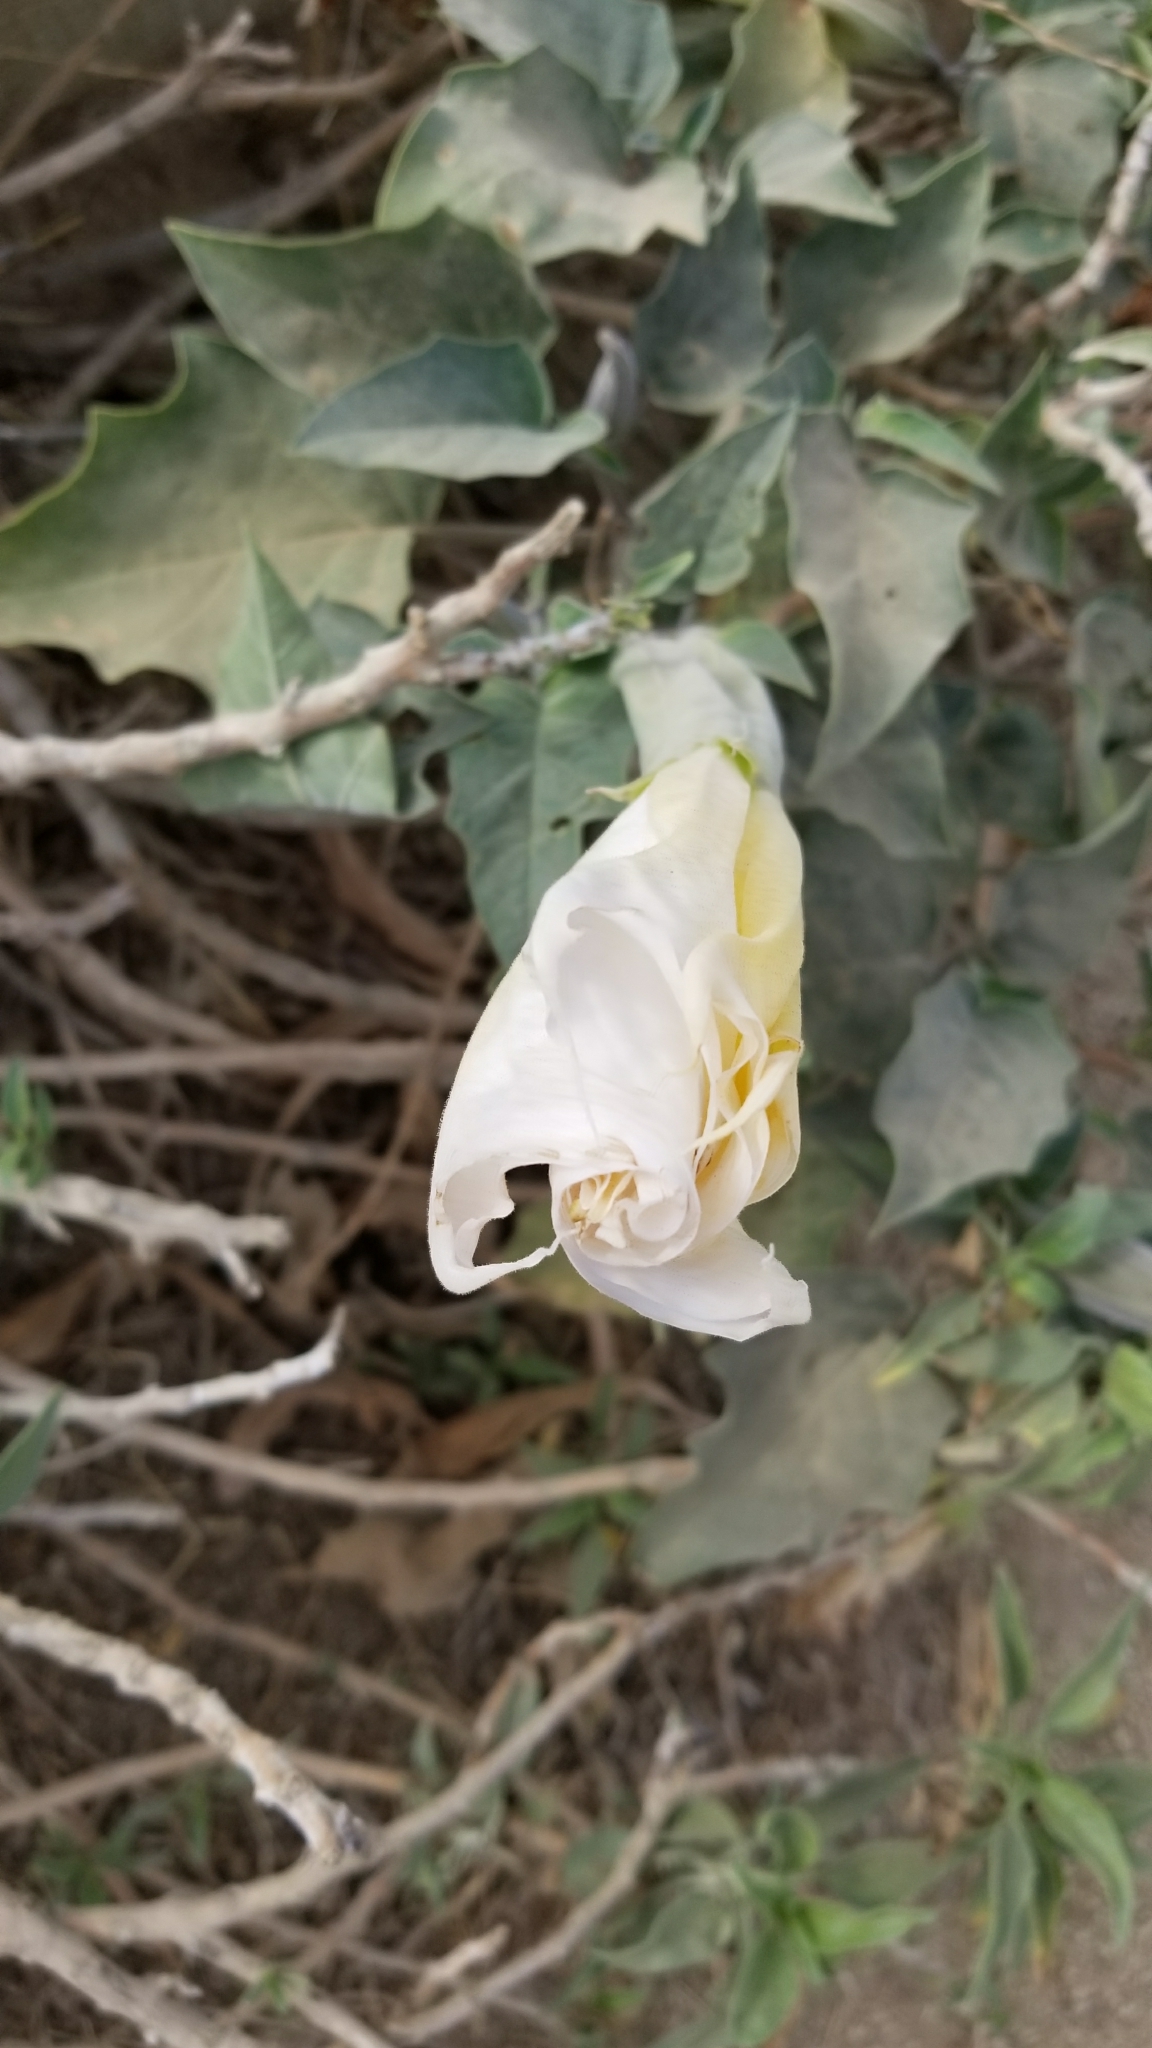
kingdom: Plantae
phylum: Tracheophyta
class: Magnoliopsida
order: Solanales
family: Solanaceae
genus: Datura
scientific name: Datura wrightii
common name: Sacred thorn-apple
